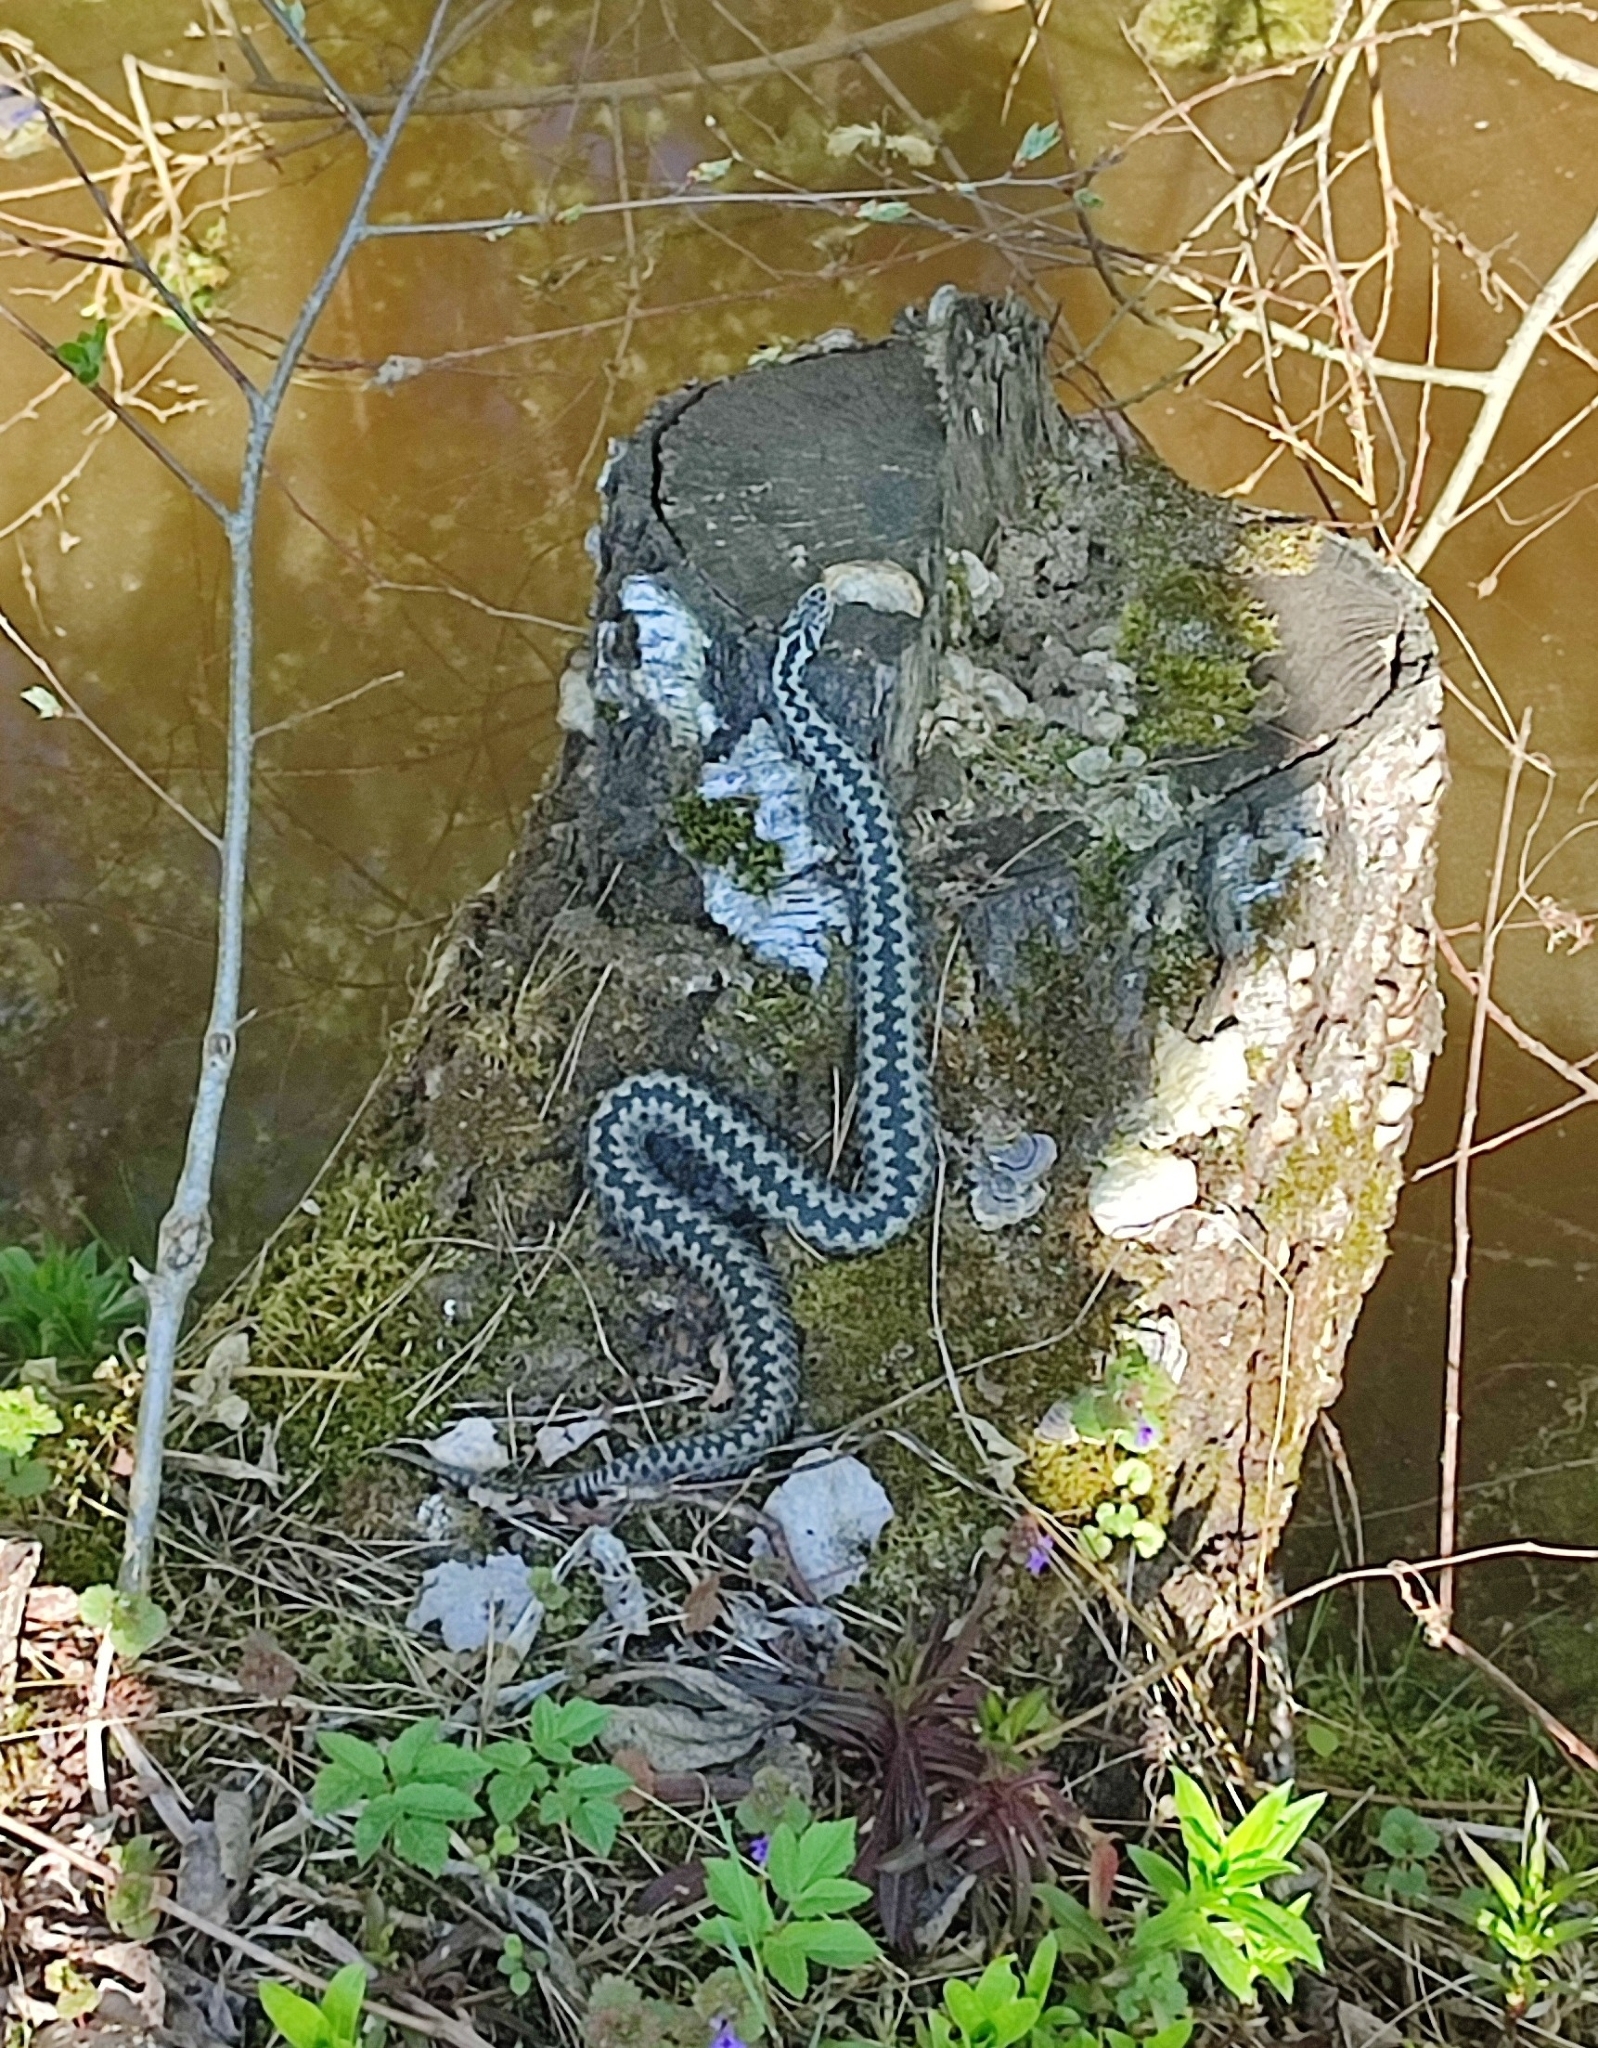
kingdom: Animalia
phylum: Chordata
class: Squamata
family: Viperidae
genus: Vipera
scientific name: Vipera berus
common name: Adder
